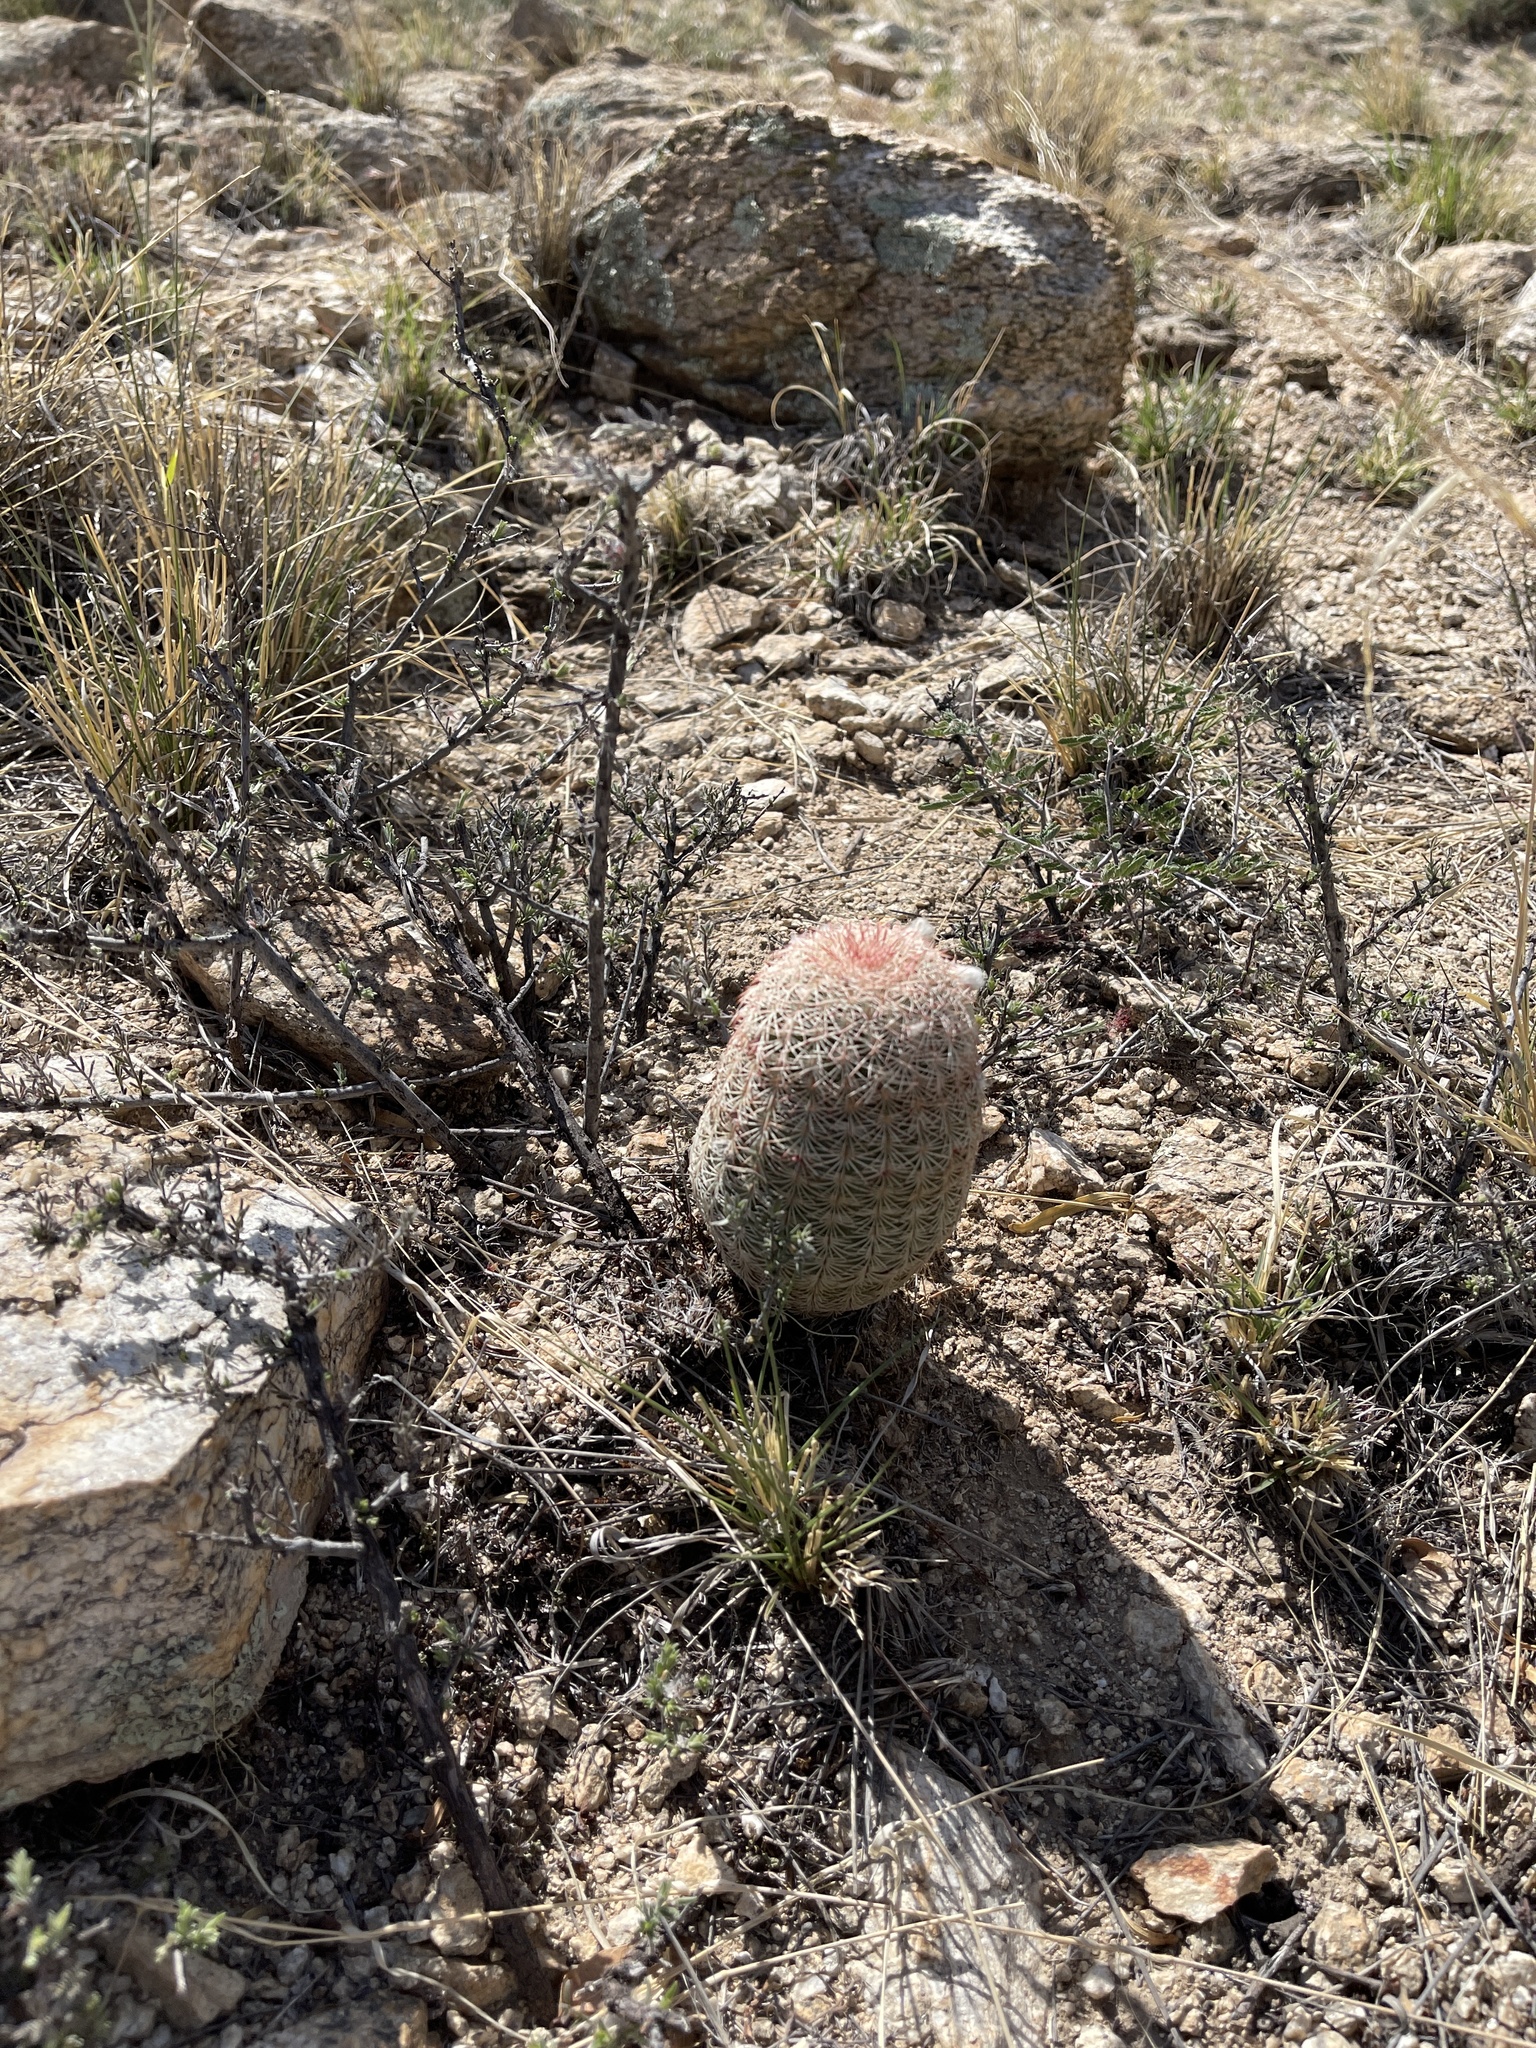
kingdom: Plantae
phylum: Tracheophyta
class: Magnoliopsida
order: Caryophyllales
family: Cactaceae
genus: Echinocereus
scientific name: Echinocereus rigidissimus
